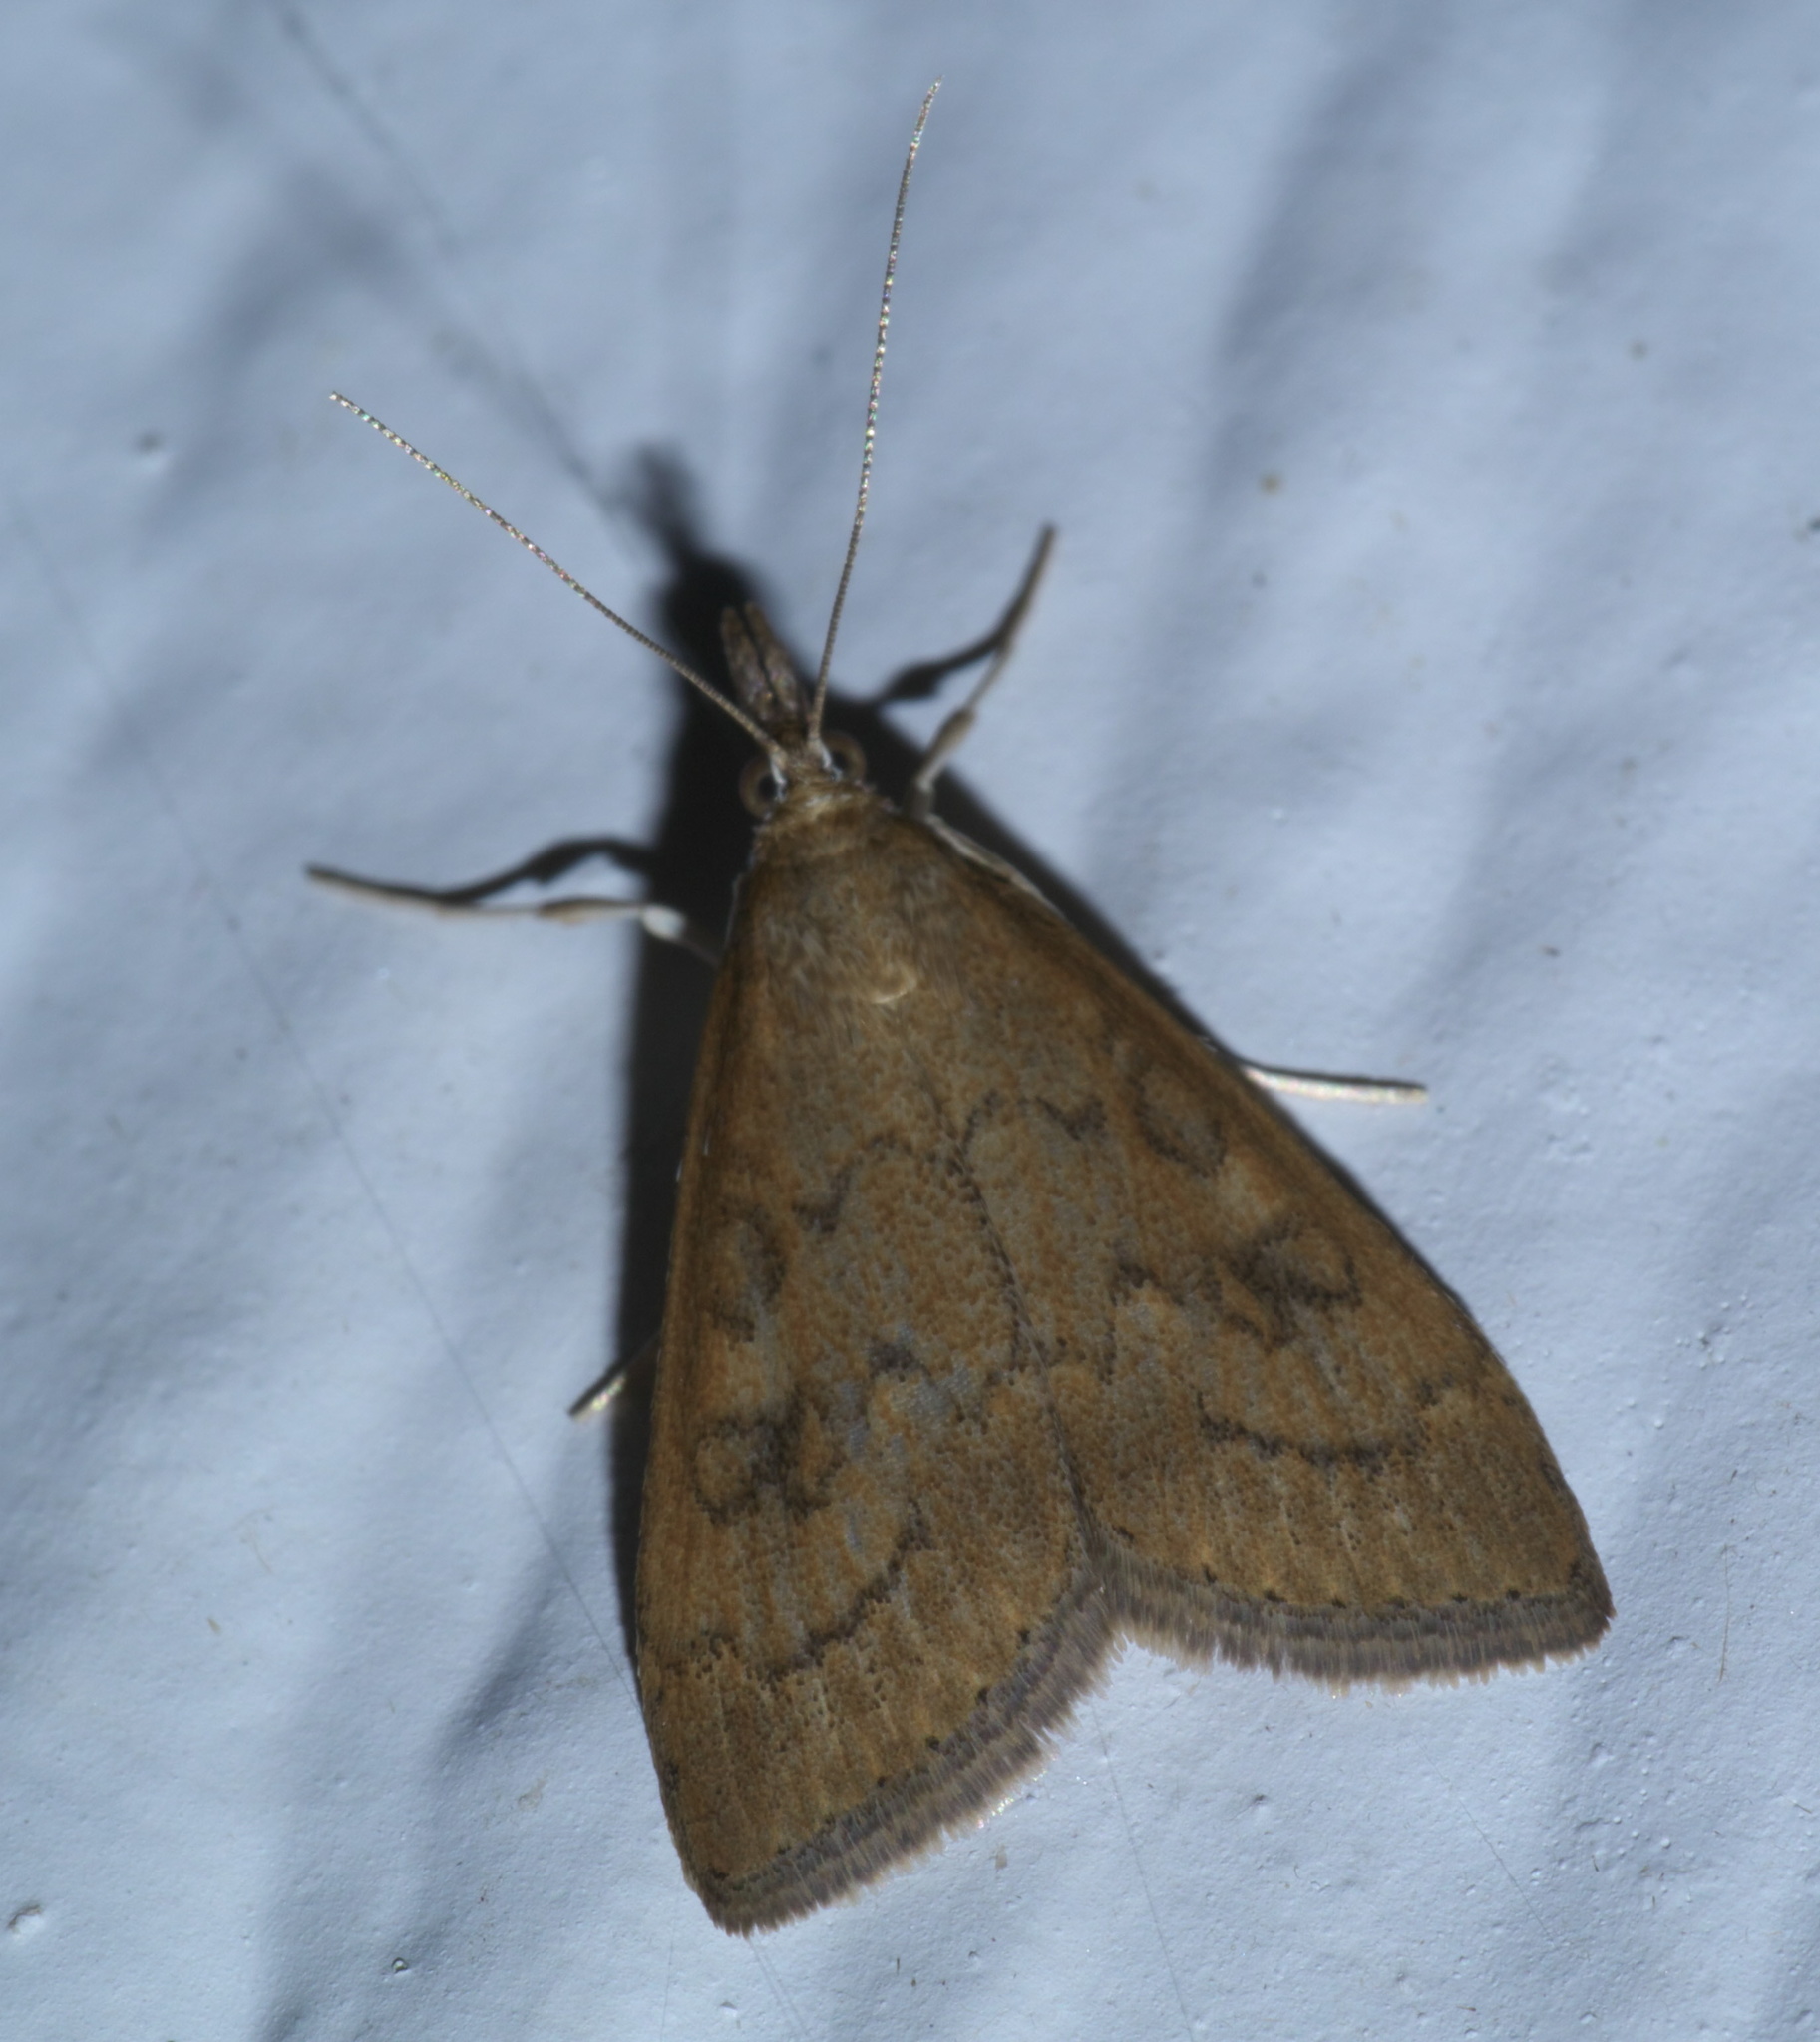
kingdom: Animalia
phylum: Arthropoda
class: Insecta
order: Lepidoptera
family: Crambidae
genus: Udea
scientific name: Udea rubigalis
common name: Celery leaftier moth
